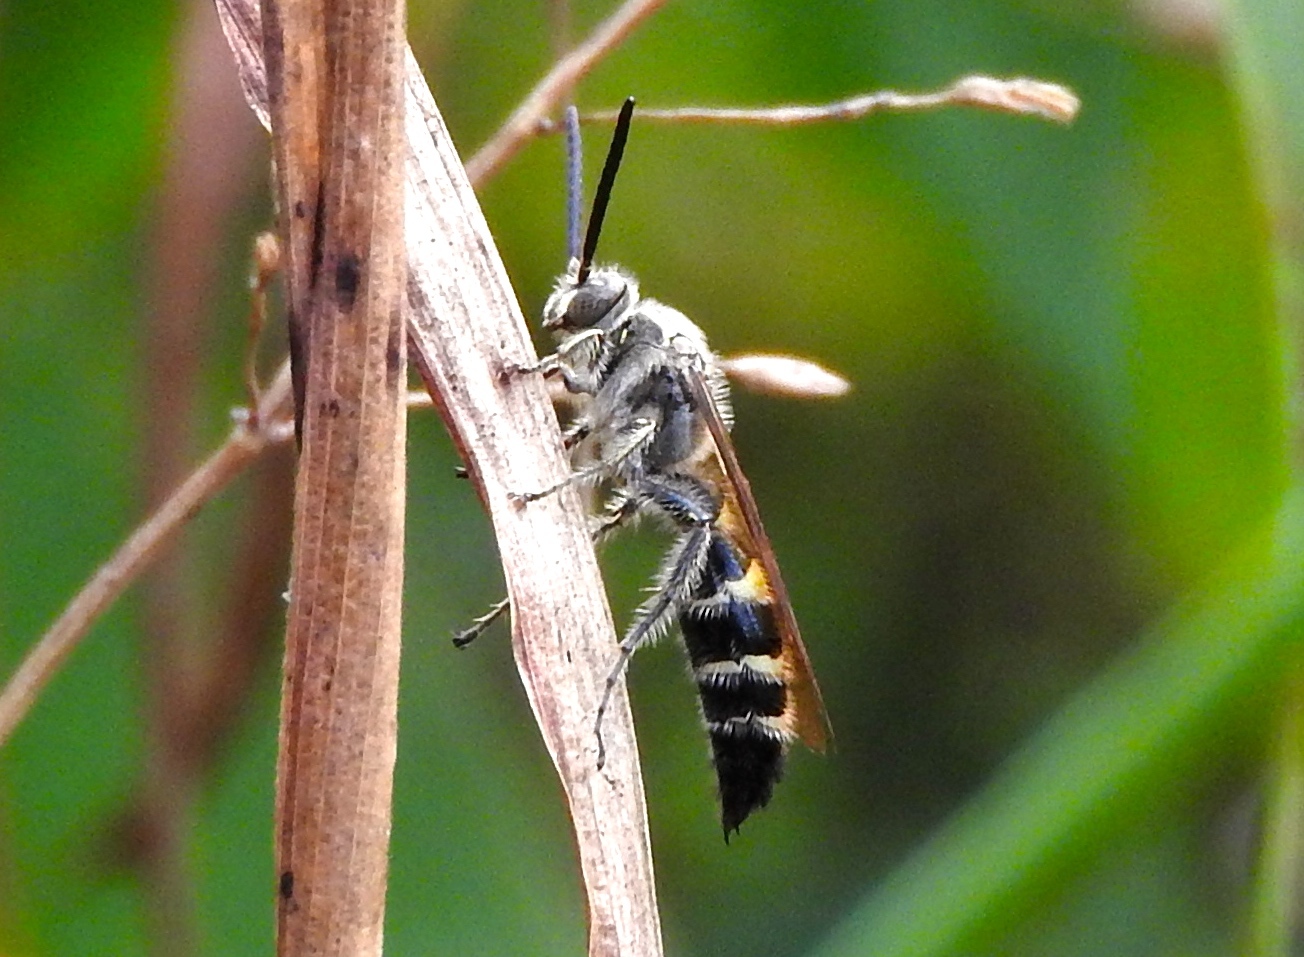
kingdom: Animalia
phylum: Arthropoda
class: Insecta
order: Hymenoptera
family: Scoliidae
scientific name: Scoliidae
